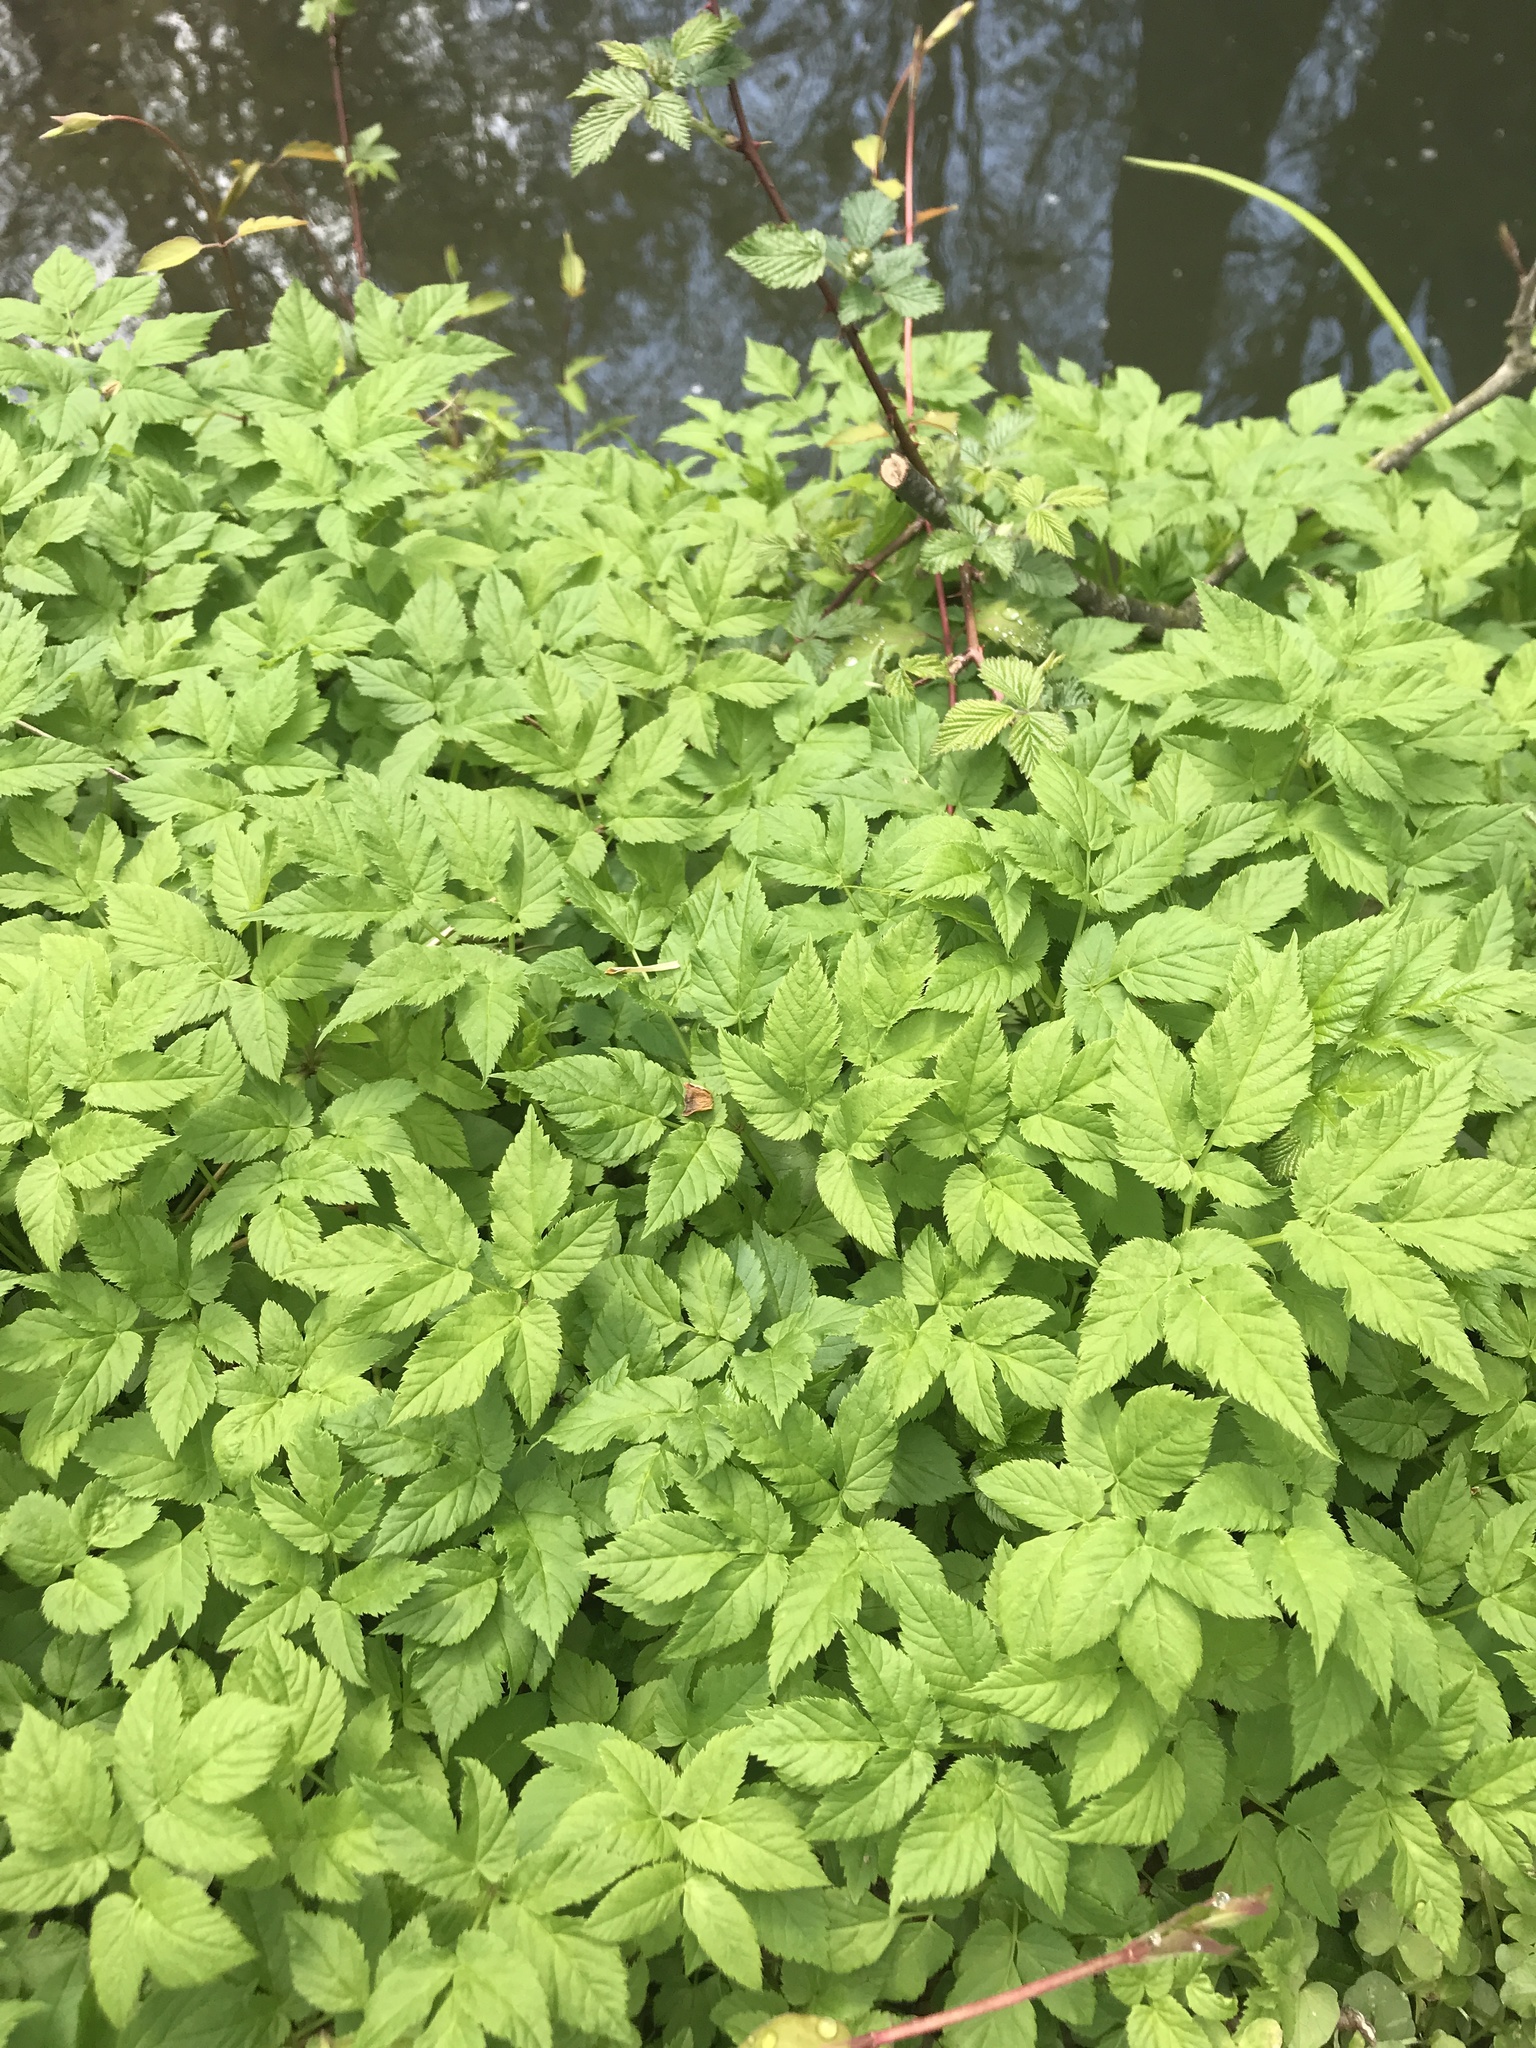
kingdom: Plantae
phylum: Tracheophyta
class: Magnoliopsida
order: Apiales
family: Apiaceae
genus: Aegopodium
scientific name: Aegopodium podagraria
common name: Ground-elder
